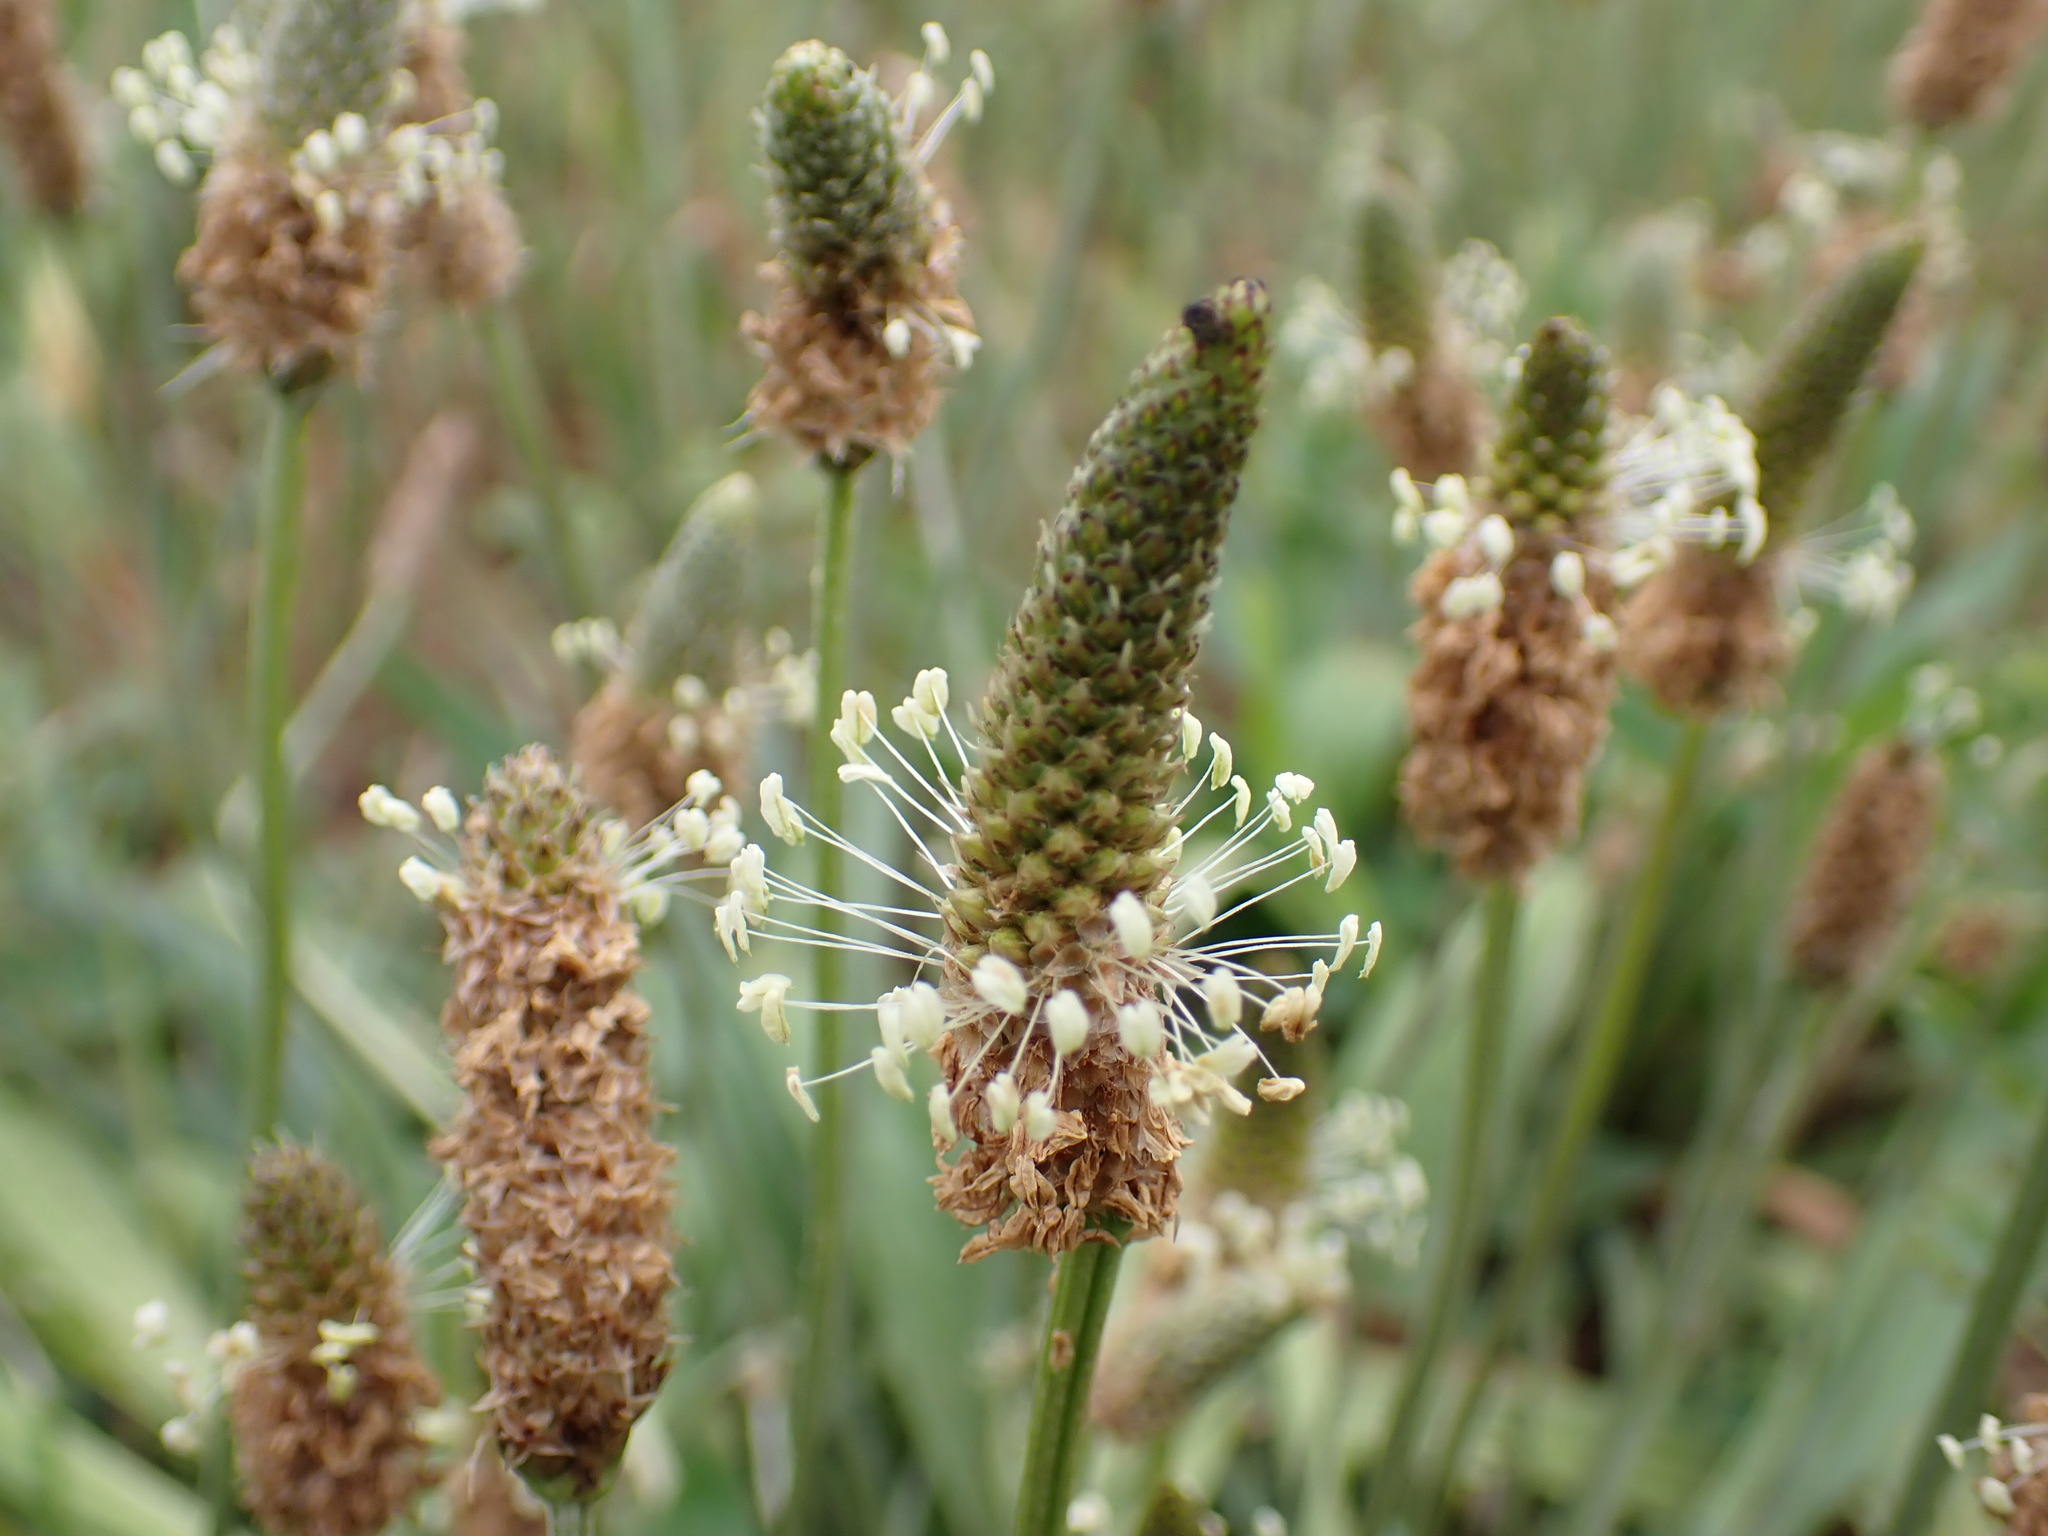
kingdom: Plantae
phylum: Tracheophyta
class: Magnoliopsida
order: Lamiales
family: Plantaginaceae
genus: Plantago
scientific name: Plantago lanceolata
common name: Ribwort plantain
